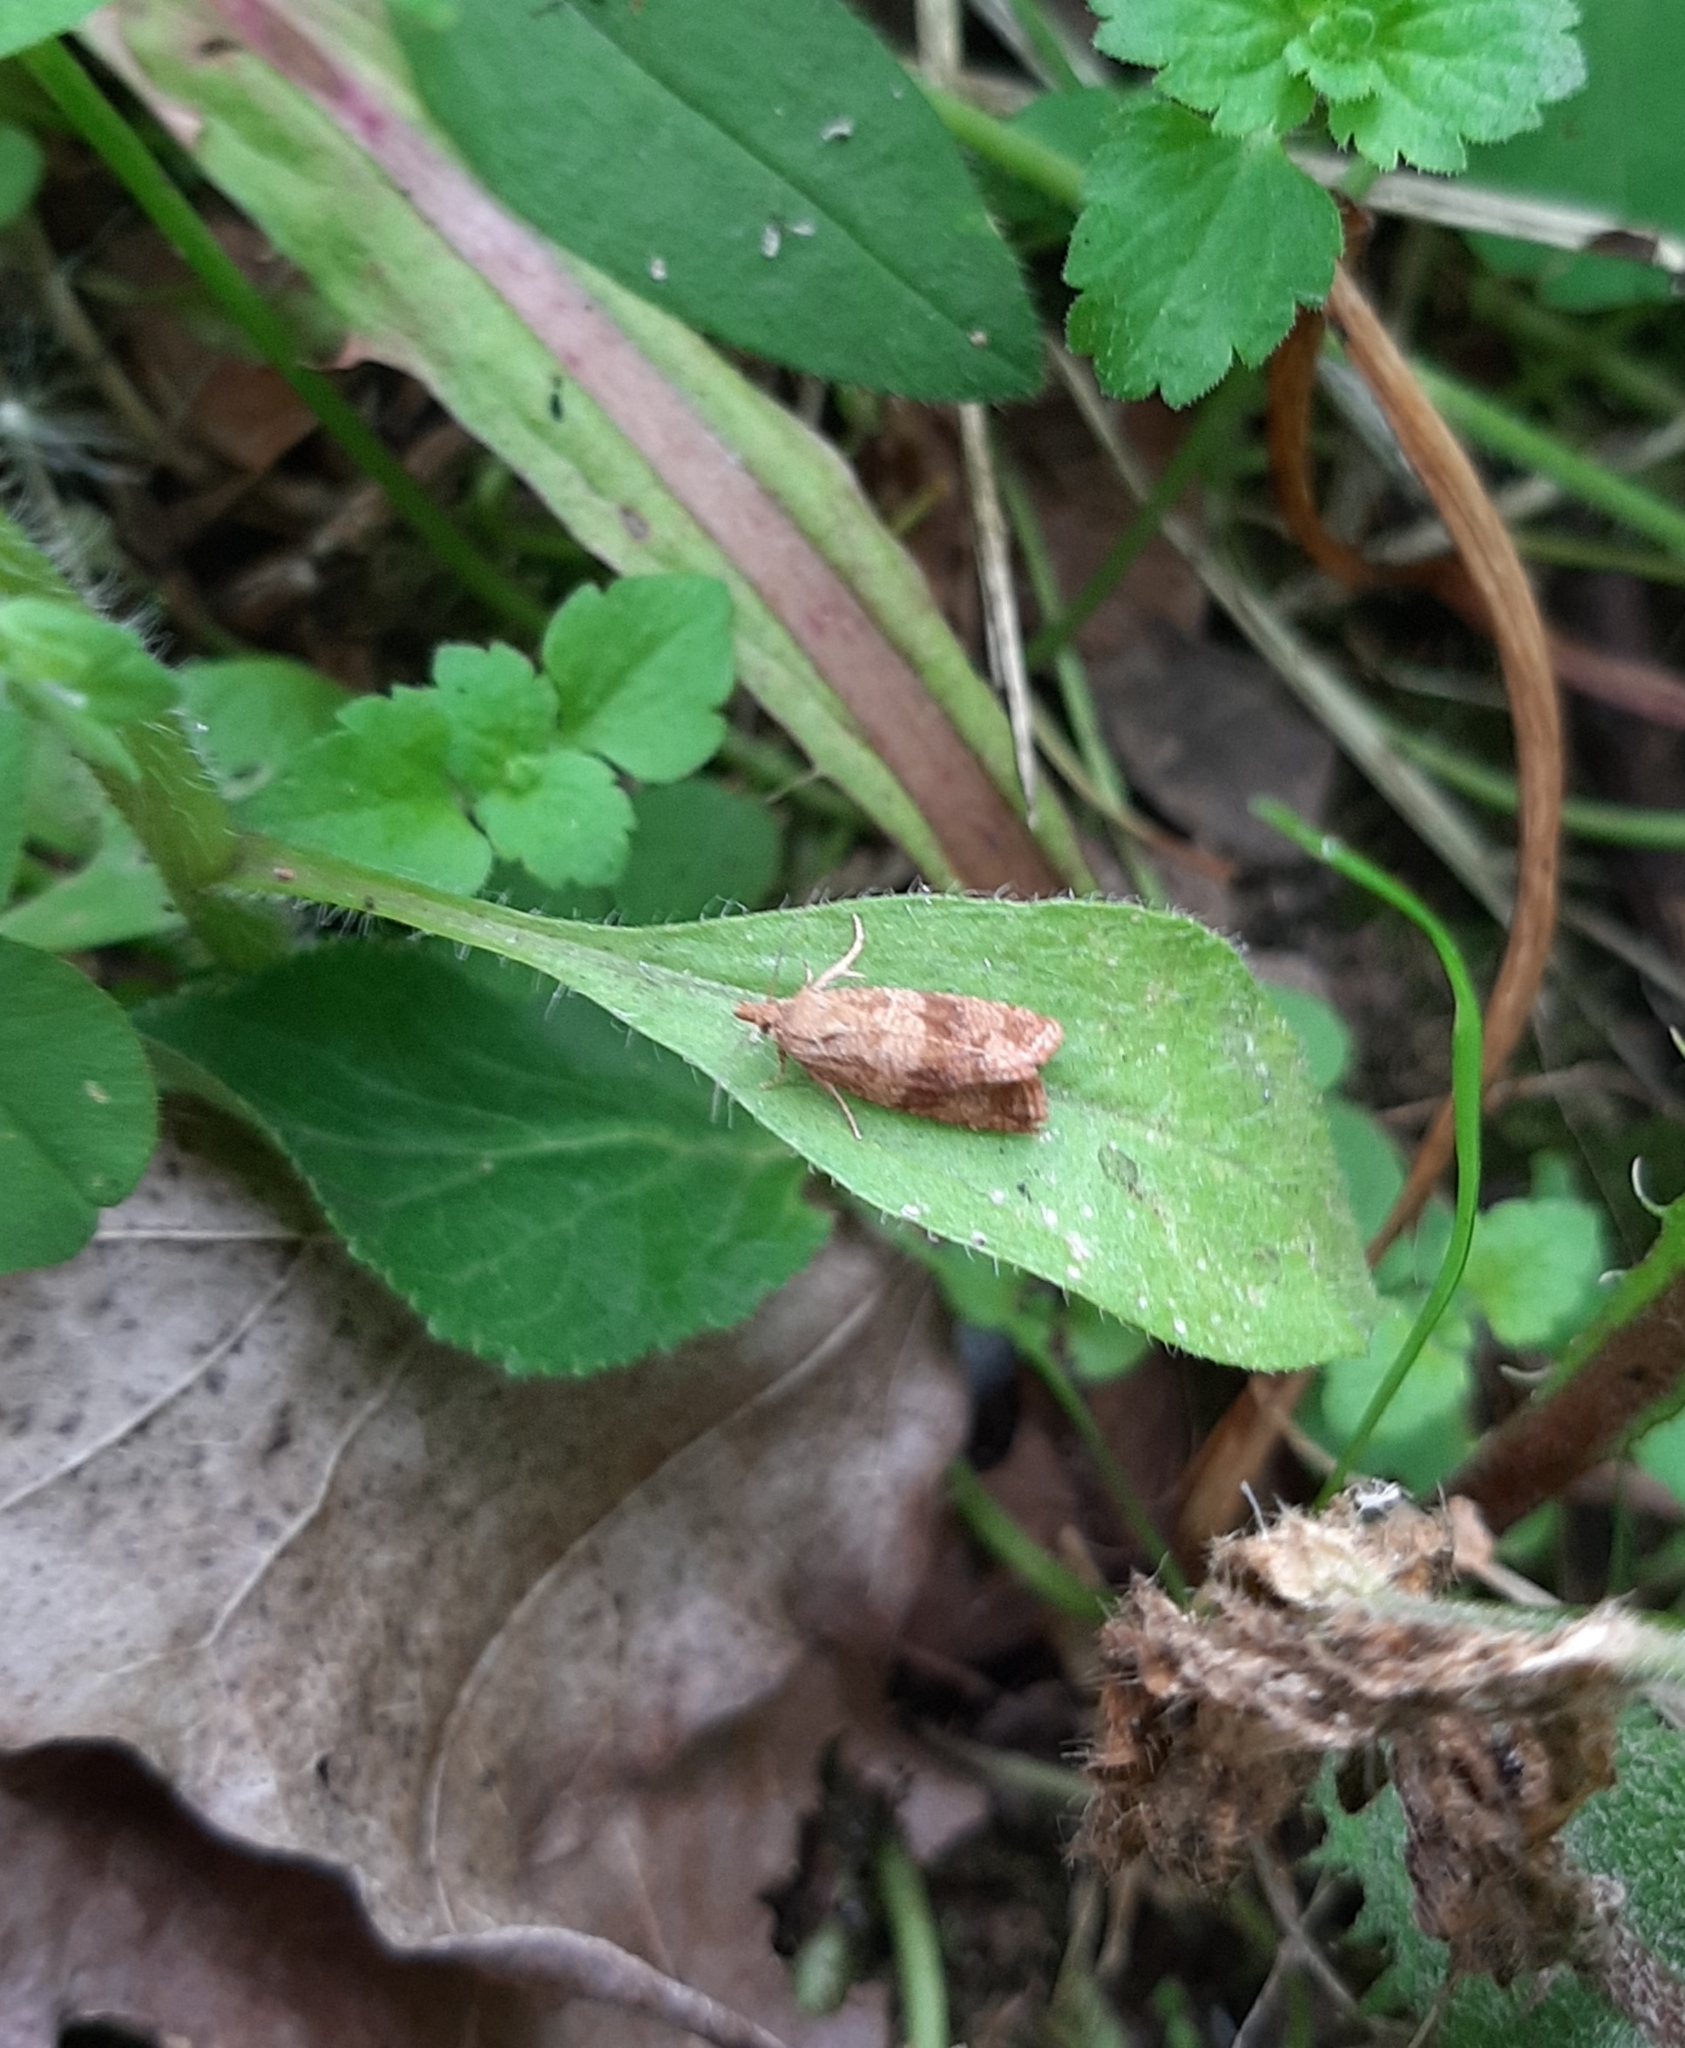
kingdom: Animalia
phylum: Arthropoda
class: Insecta
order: Lepidoptera
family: Tortricidae
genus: Celypha
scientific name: Celypha striana
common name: Barred marble
